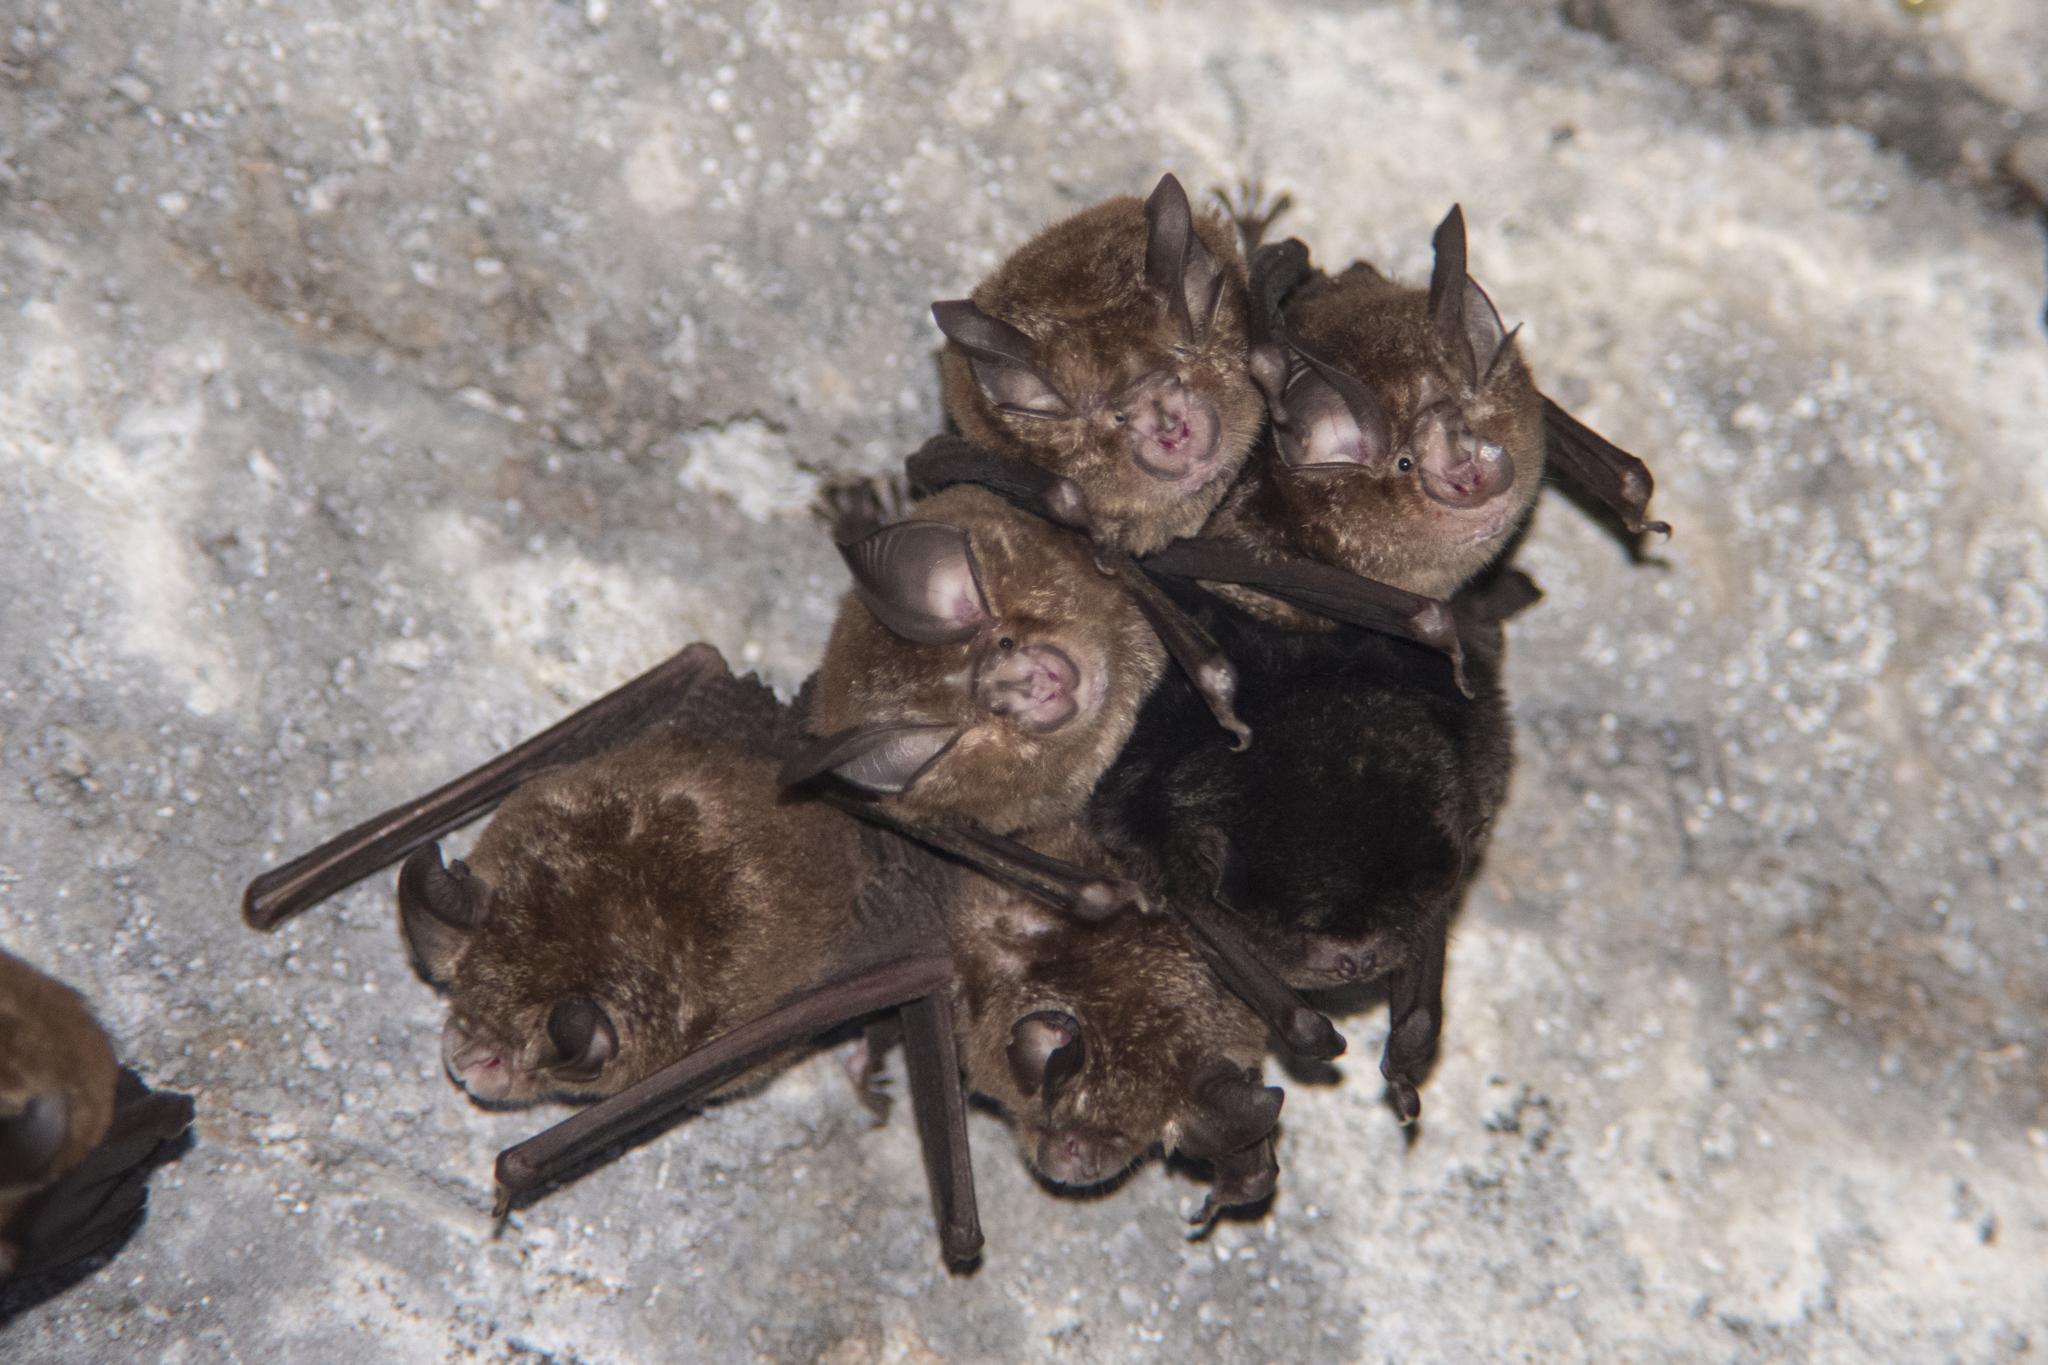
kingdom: Animalia
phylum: Chordata
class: Mammalia
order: Chiroptera
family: Rhinolophidae
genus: Rhinolophus
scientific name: Rhinolophus monoceros
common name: Formosan lesser horseshoe bat
